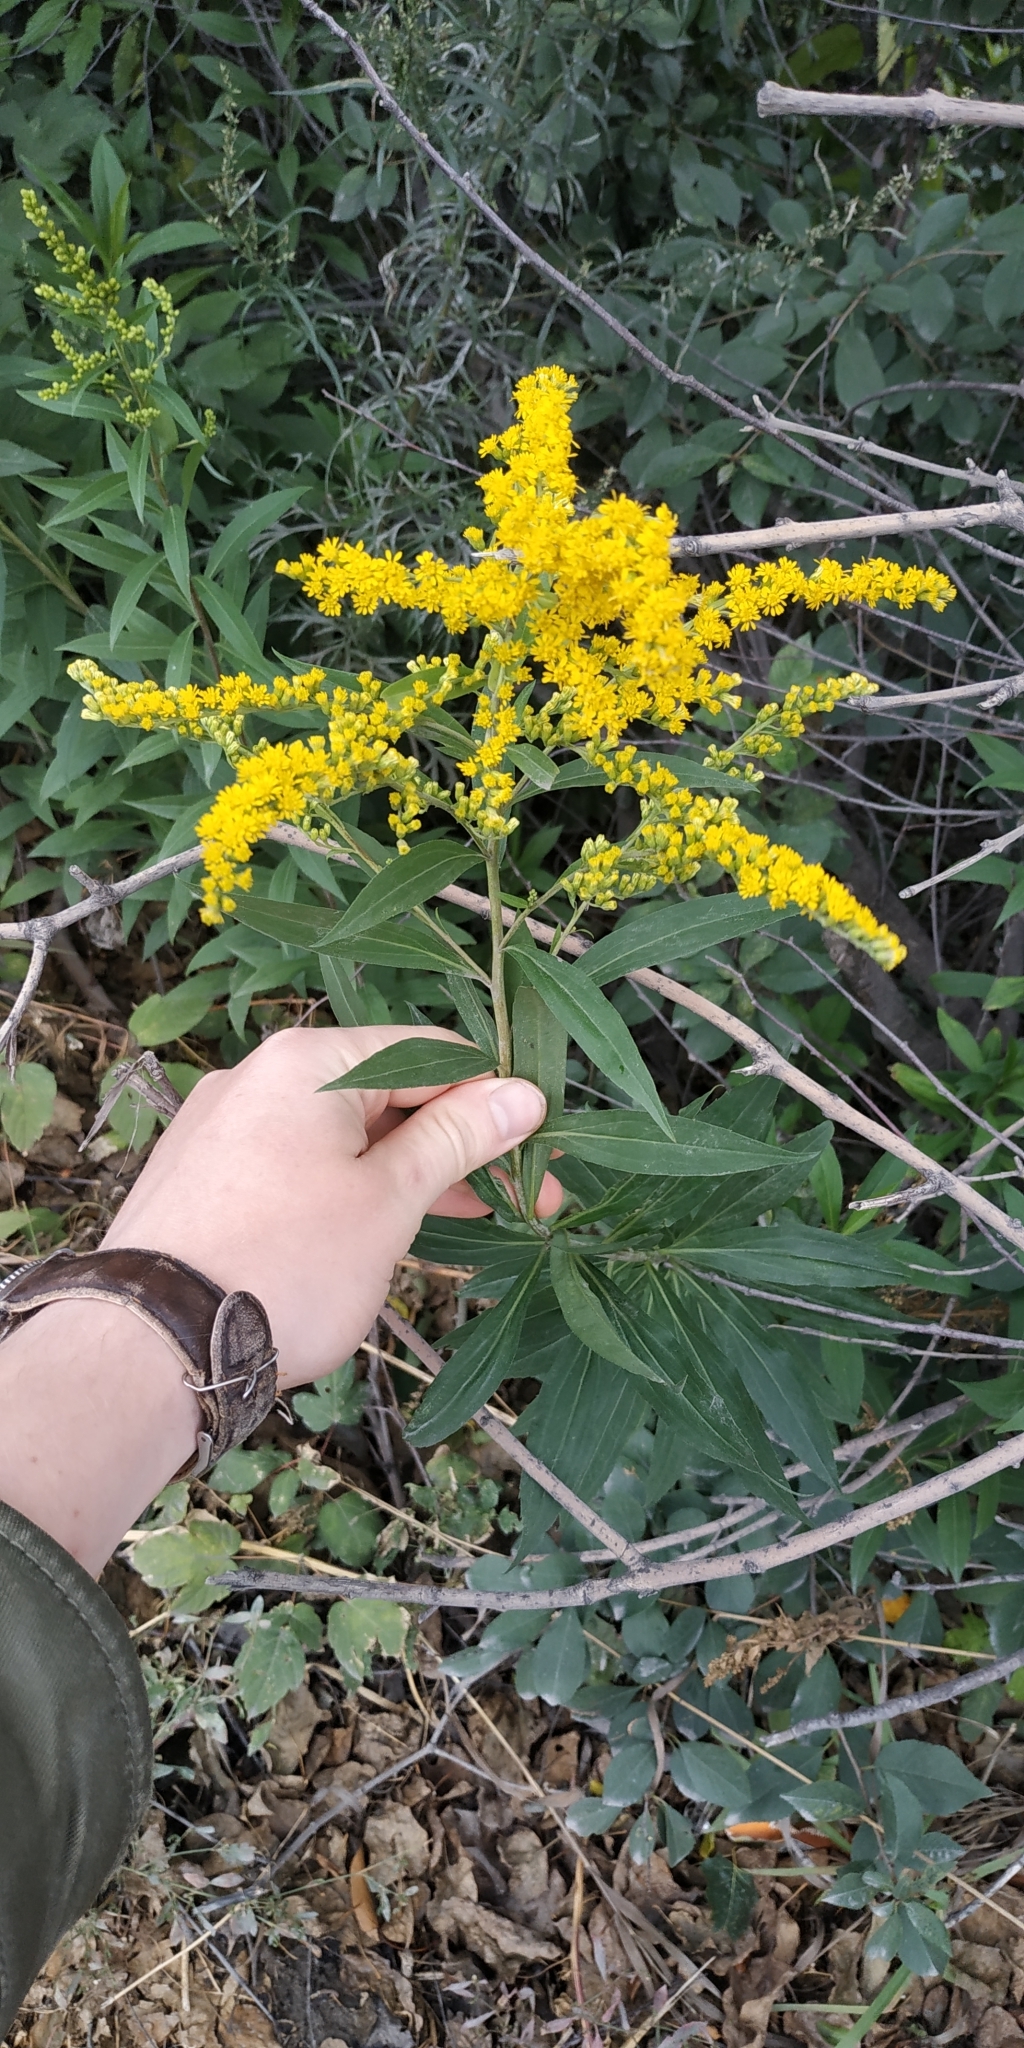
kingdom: Plantae
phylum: Tracheophyta
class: Magnoliopsida
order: Asterales
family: Asteraceae
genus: Solidago
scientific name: Solidago gigantea
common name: Giant goldenrod
